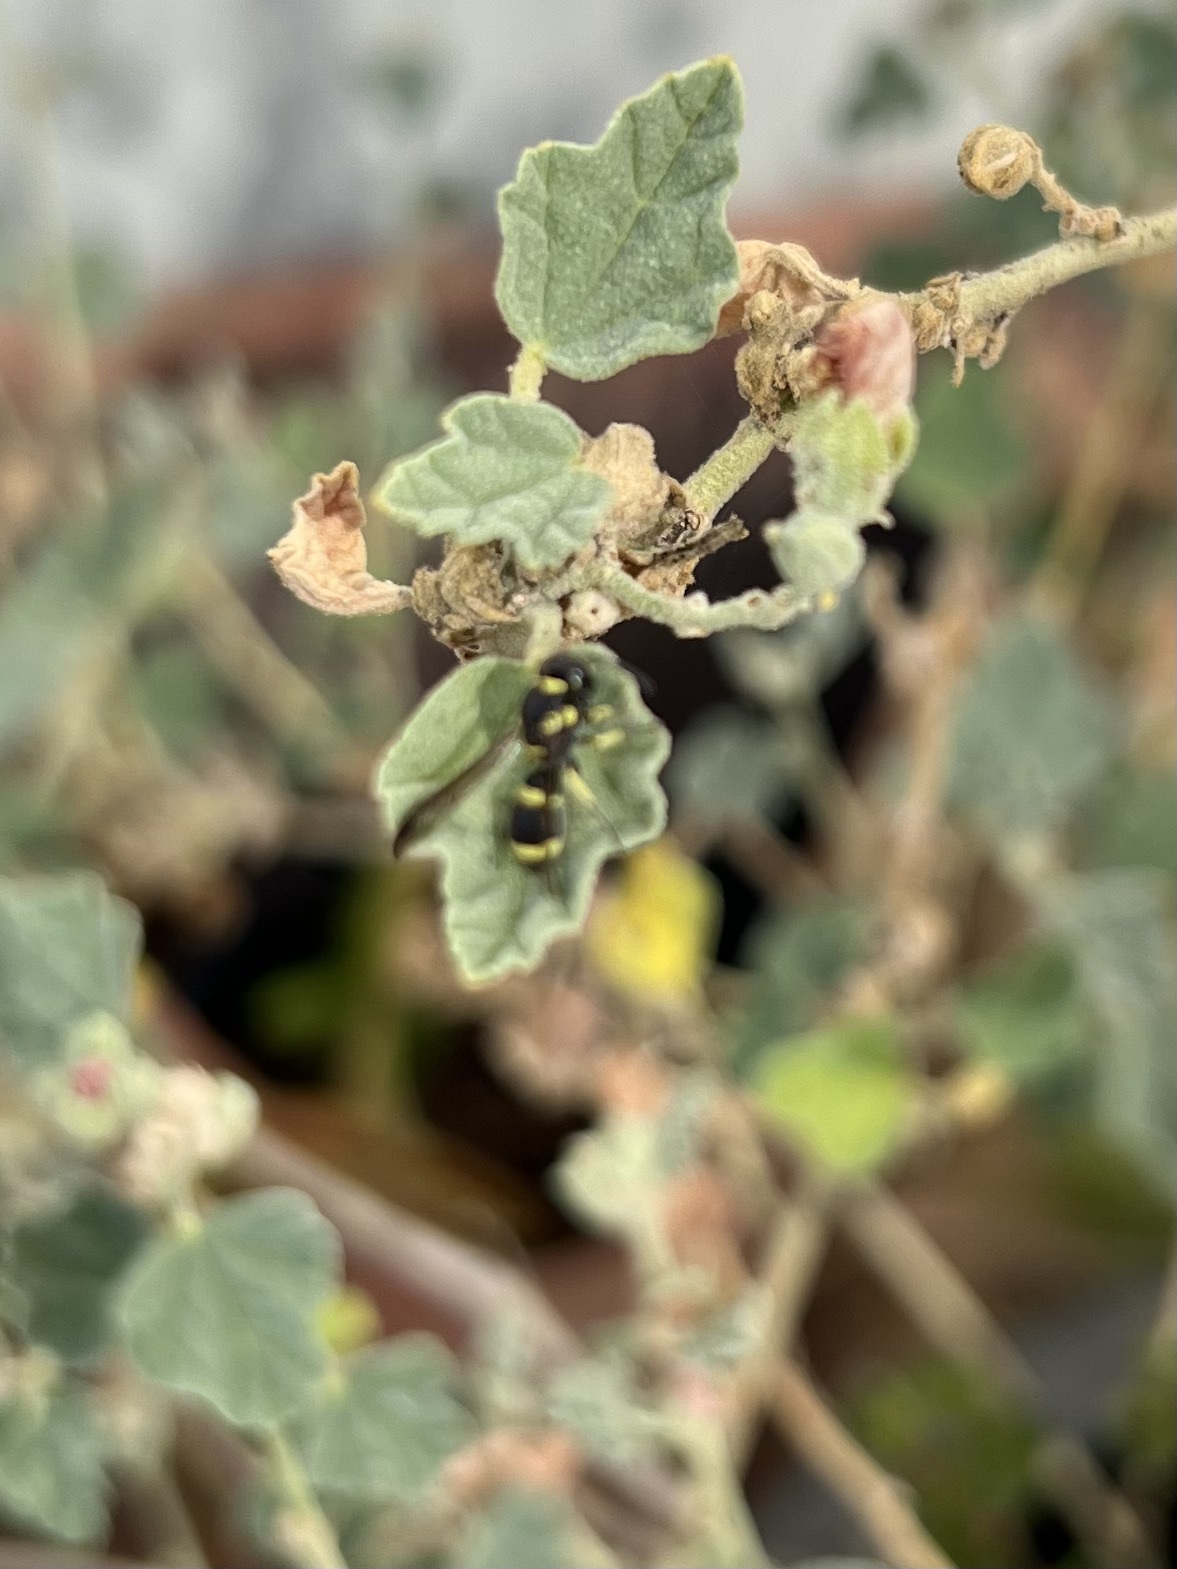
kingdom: Animalia
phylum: Arthropoda
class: Insecta
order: Hymenoptera
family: Eumenidae
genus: Parancistrocerus
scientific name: Parancistrocerus declivatus
